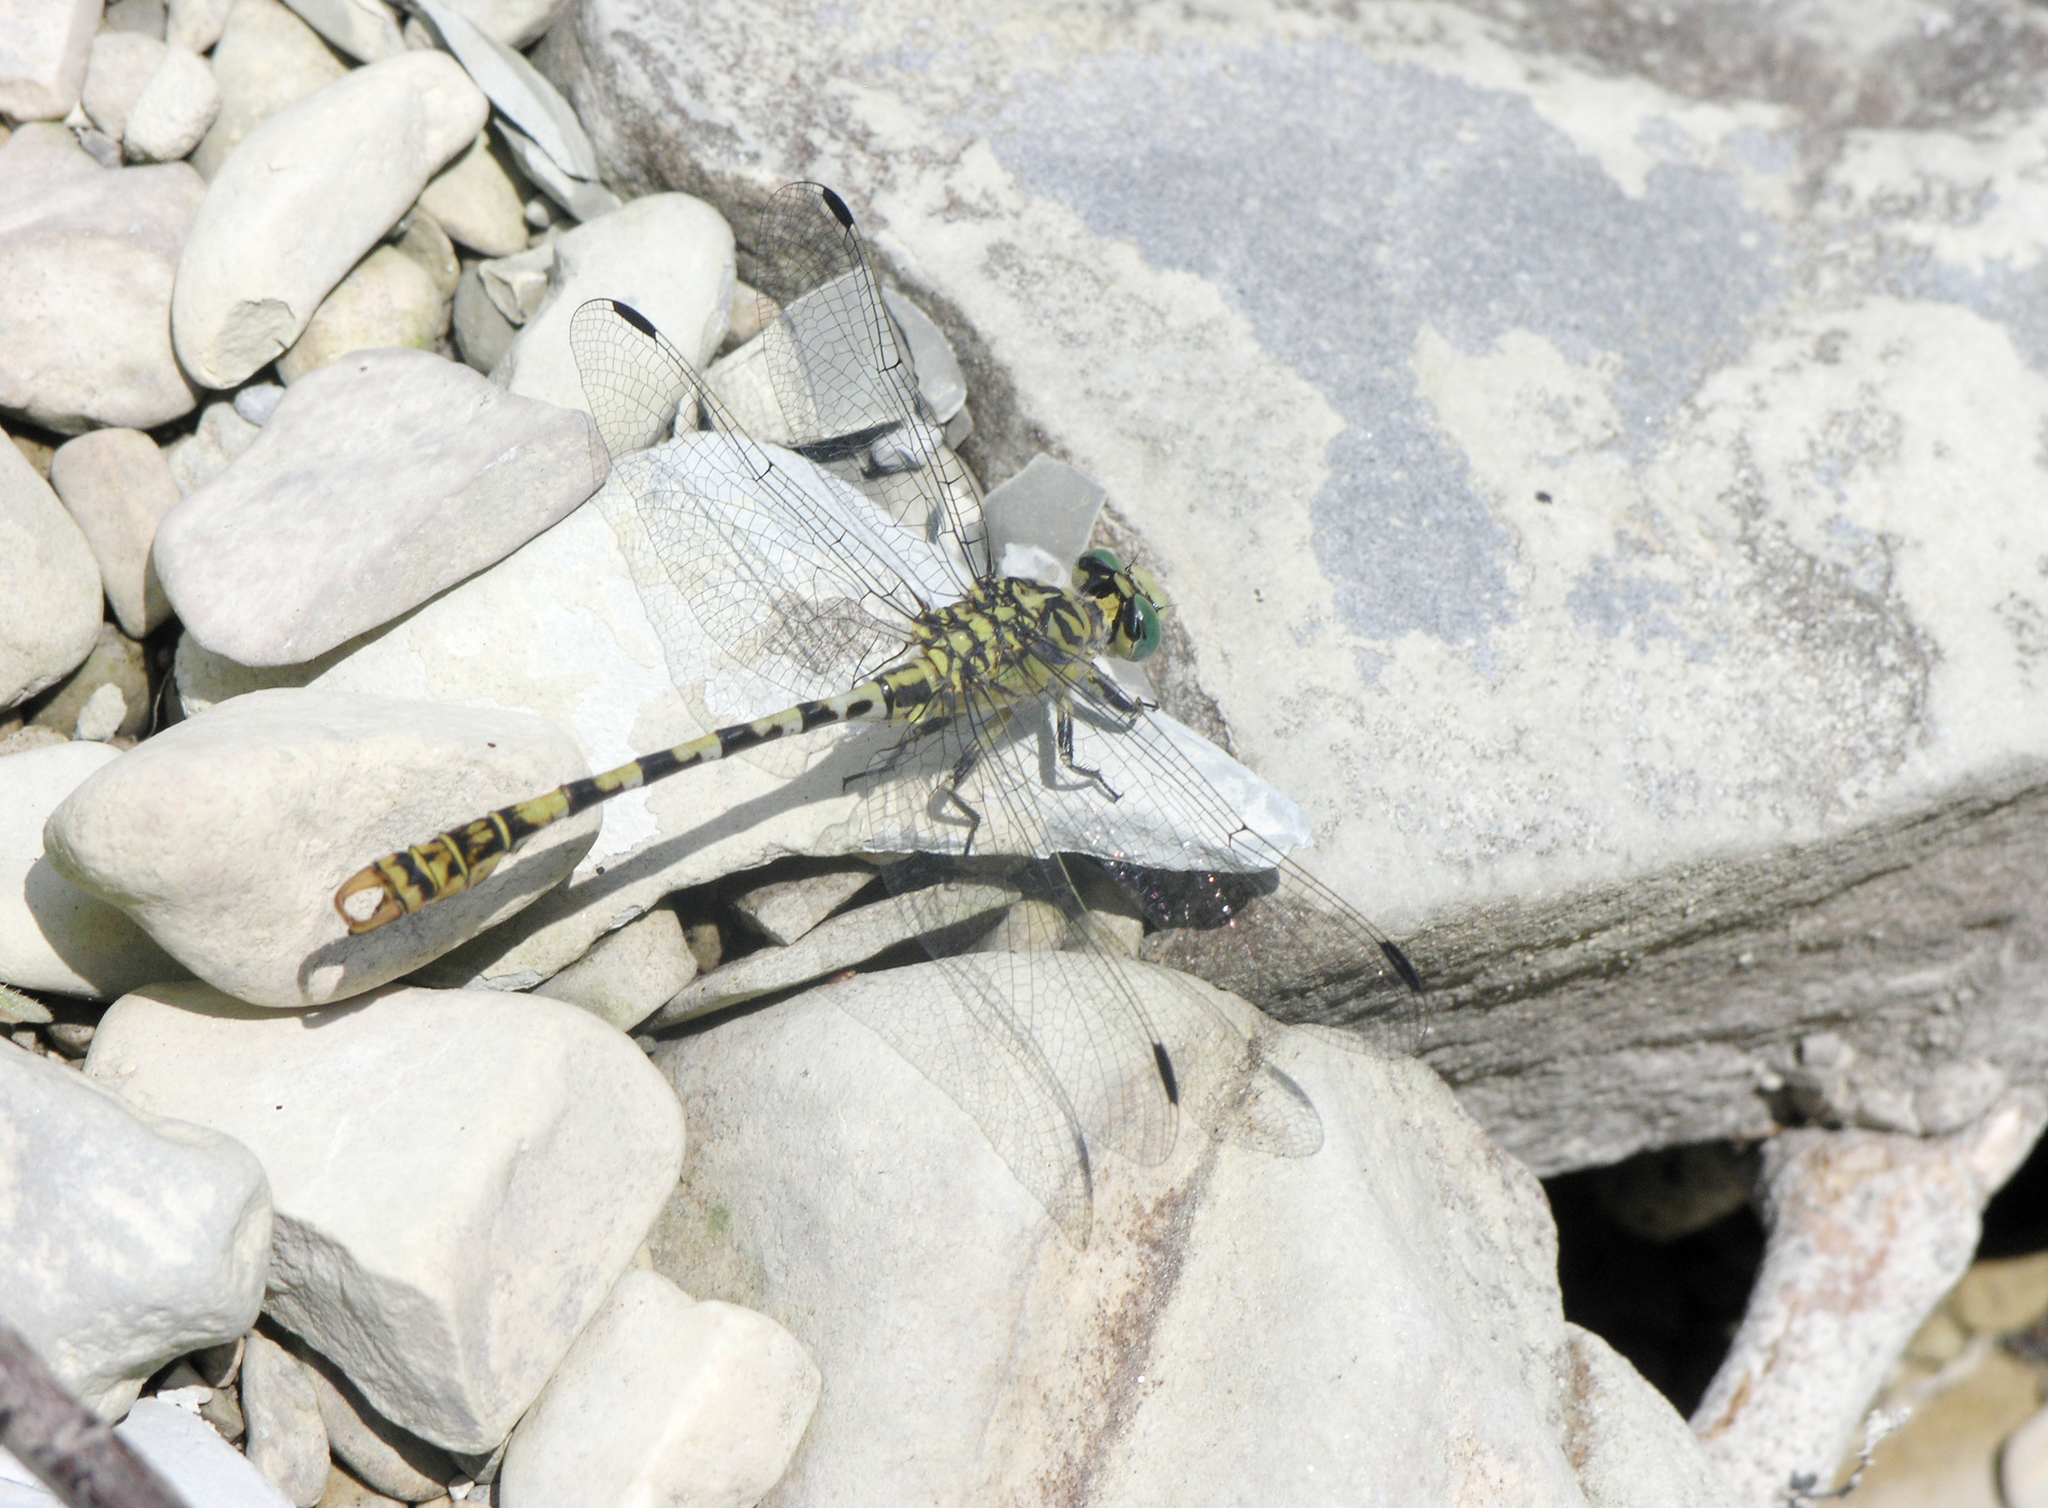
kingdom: Animalia
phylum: Arthropoda
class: Insecta
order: Odonata
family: Gomphidae
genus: Onychogomphus
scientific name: Onychogomphus forcipatus
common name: Small pincertail
